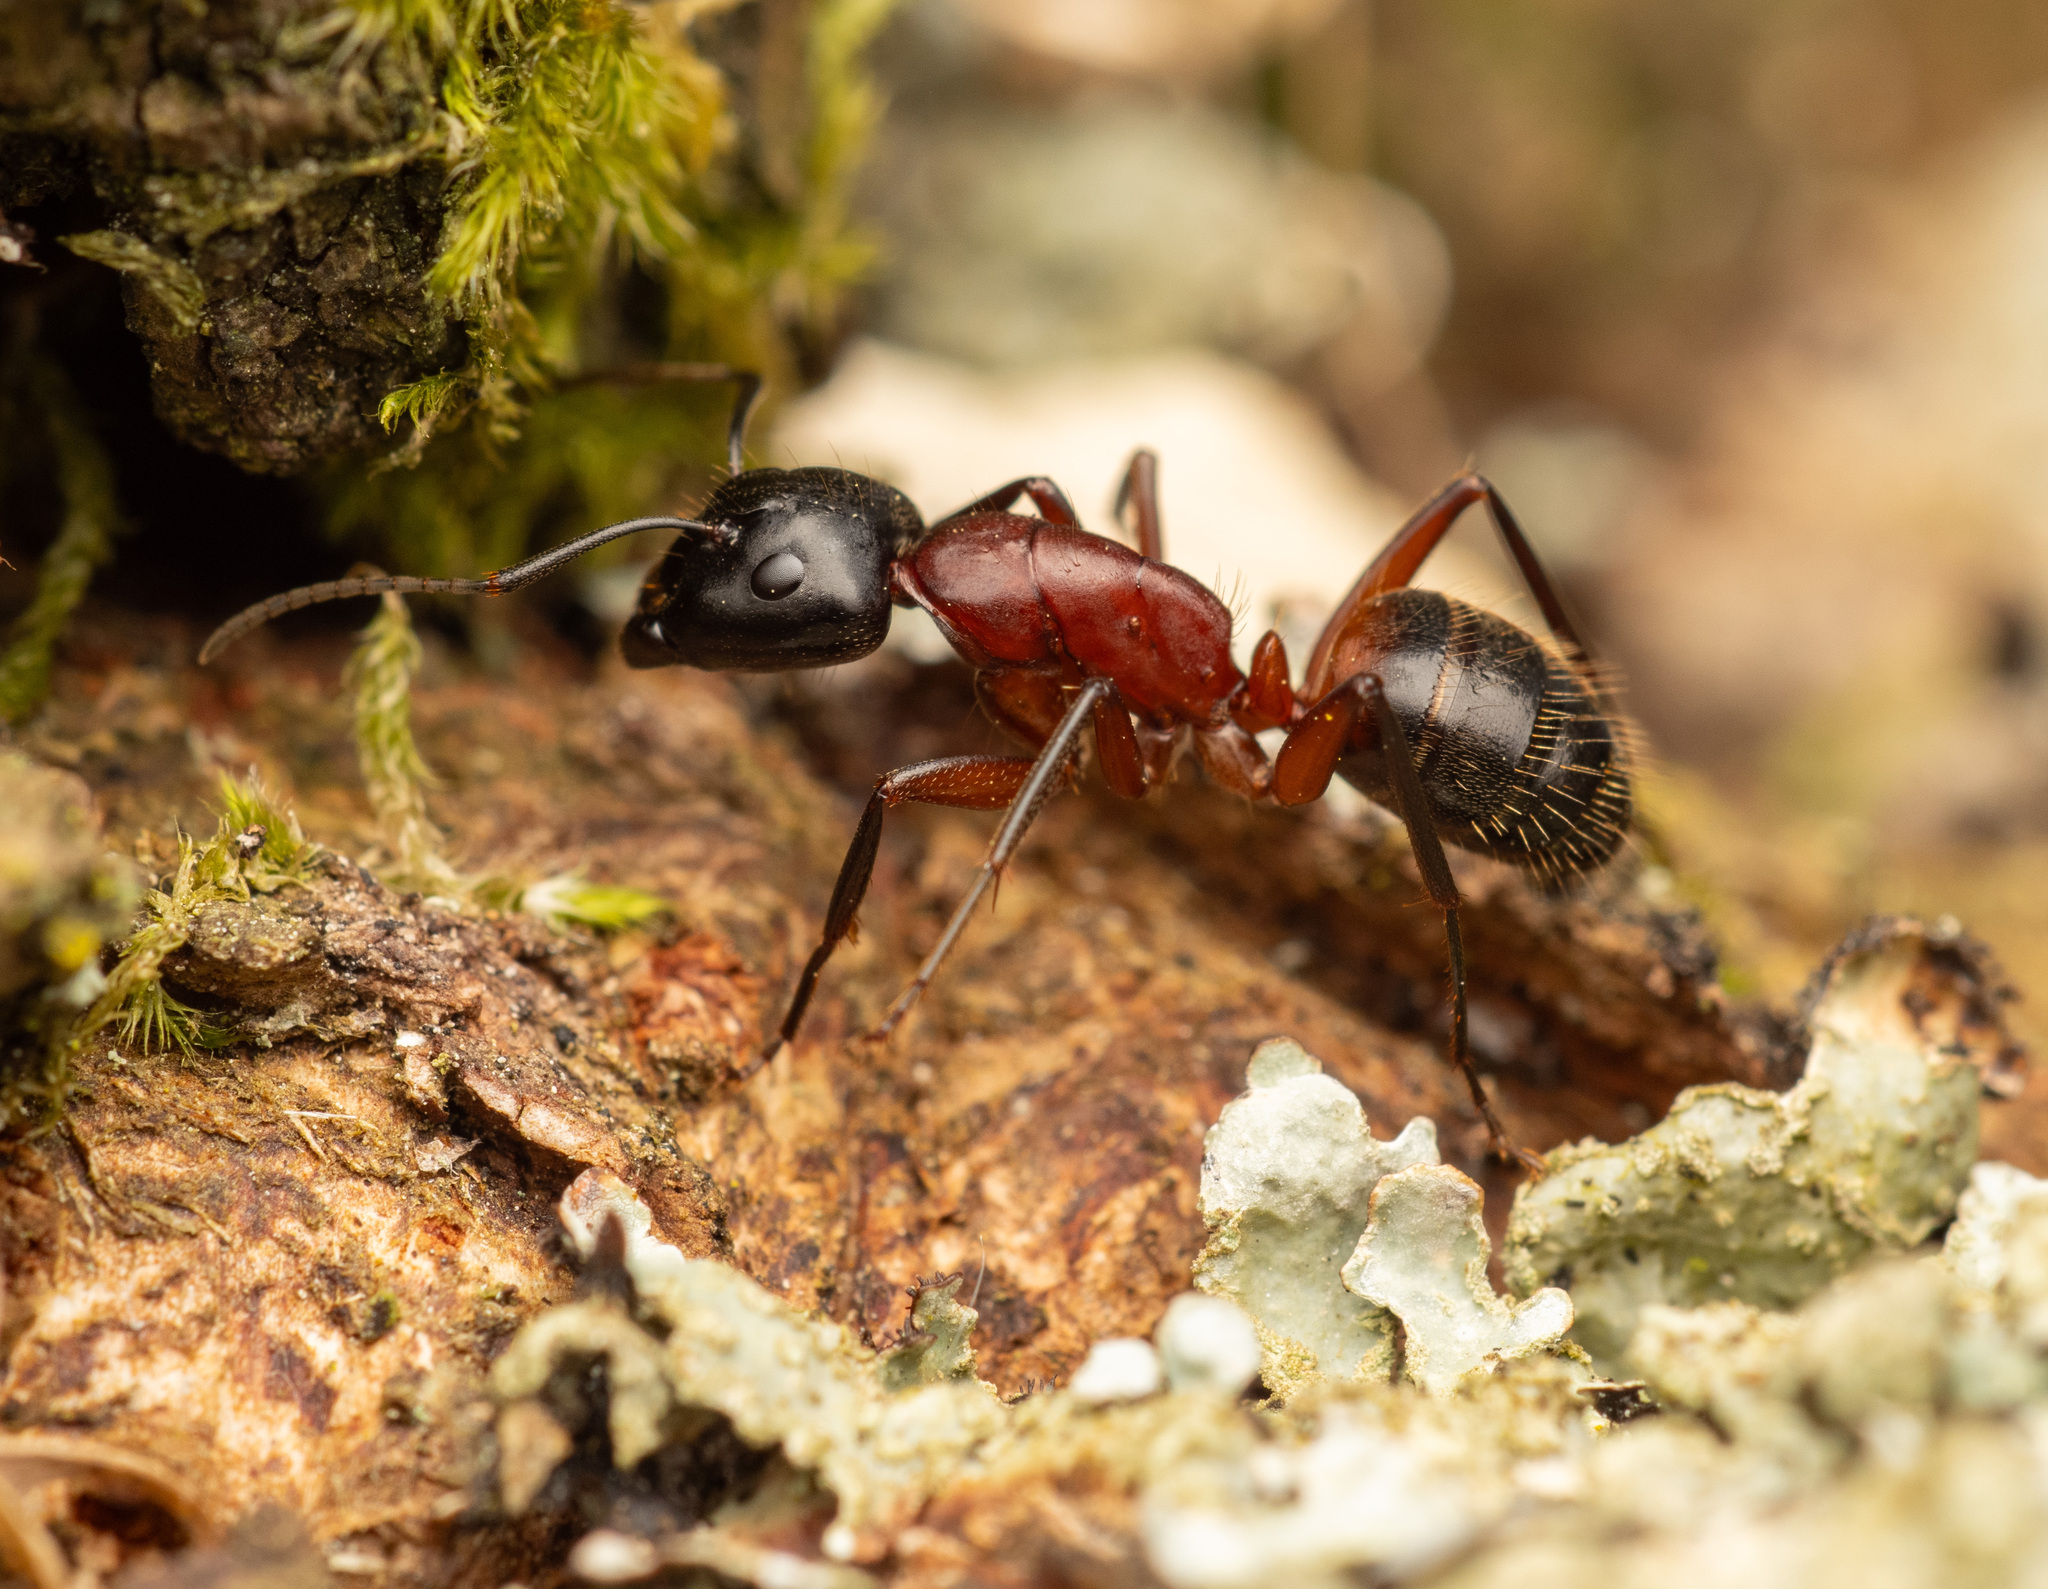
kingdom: Animalia
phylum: Arthropoda
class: Insecta
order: Hymenoptera
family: Formicidae
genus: Camponotus
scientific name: Camponotus ligniperdus
